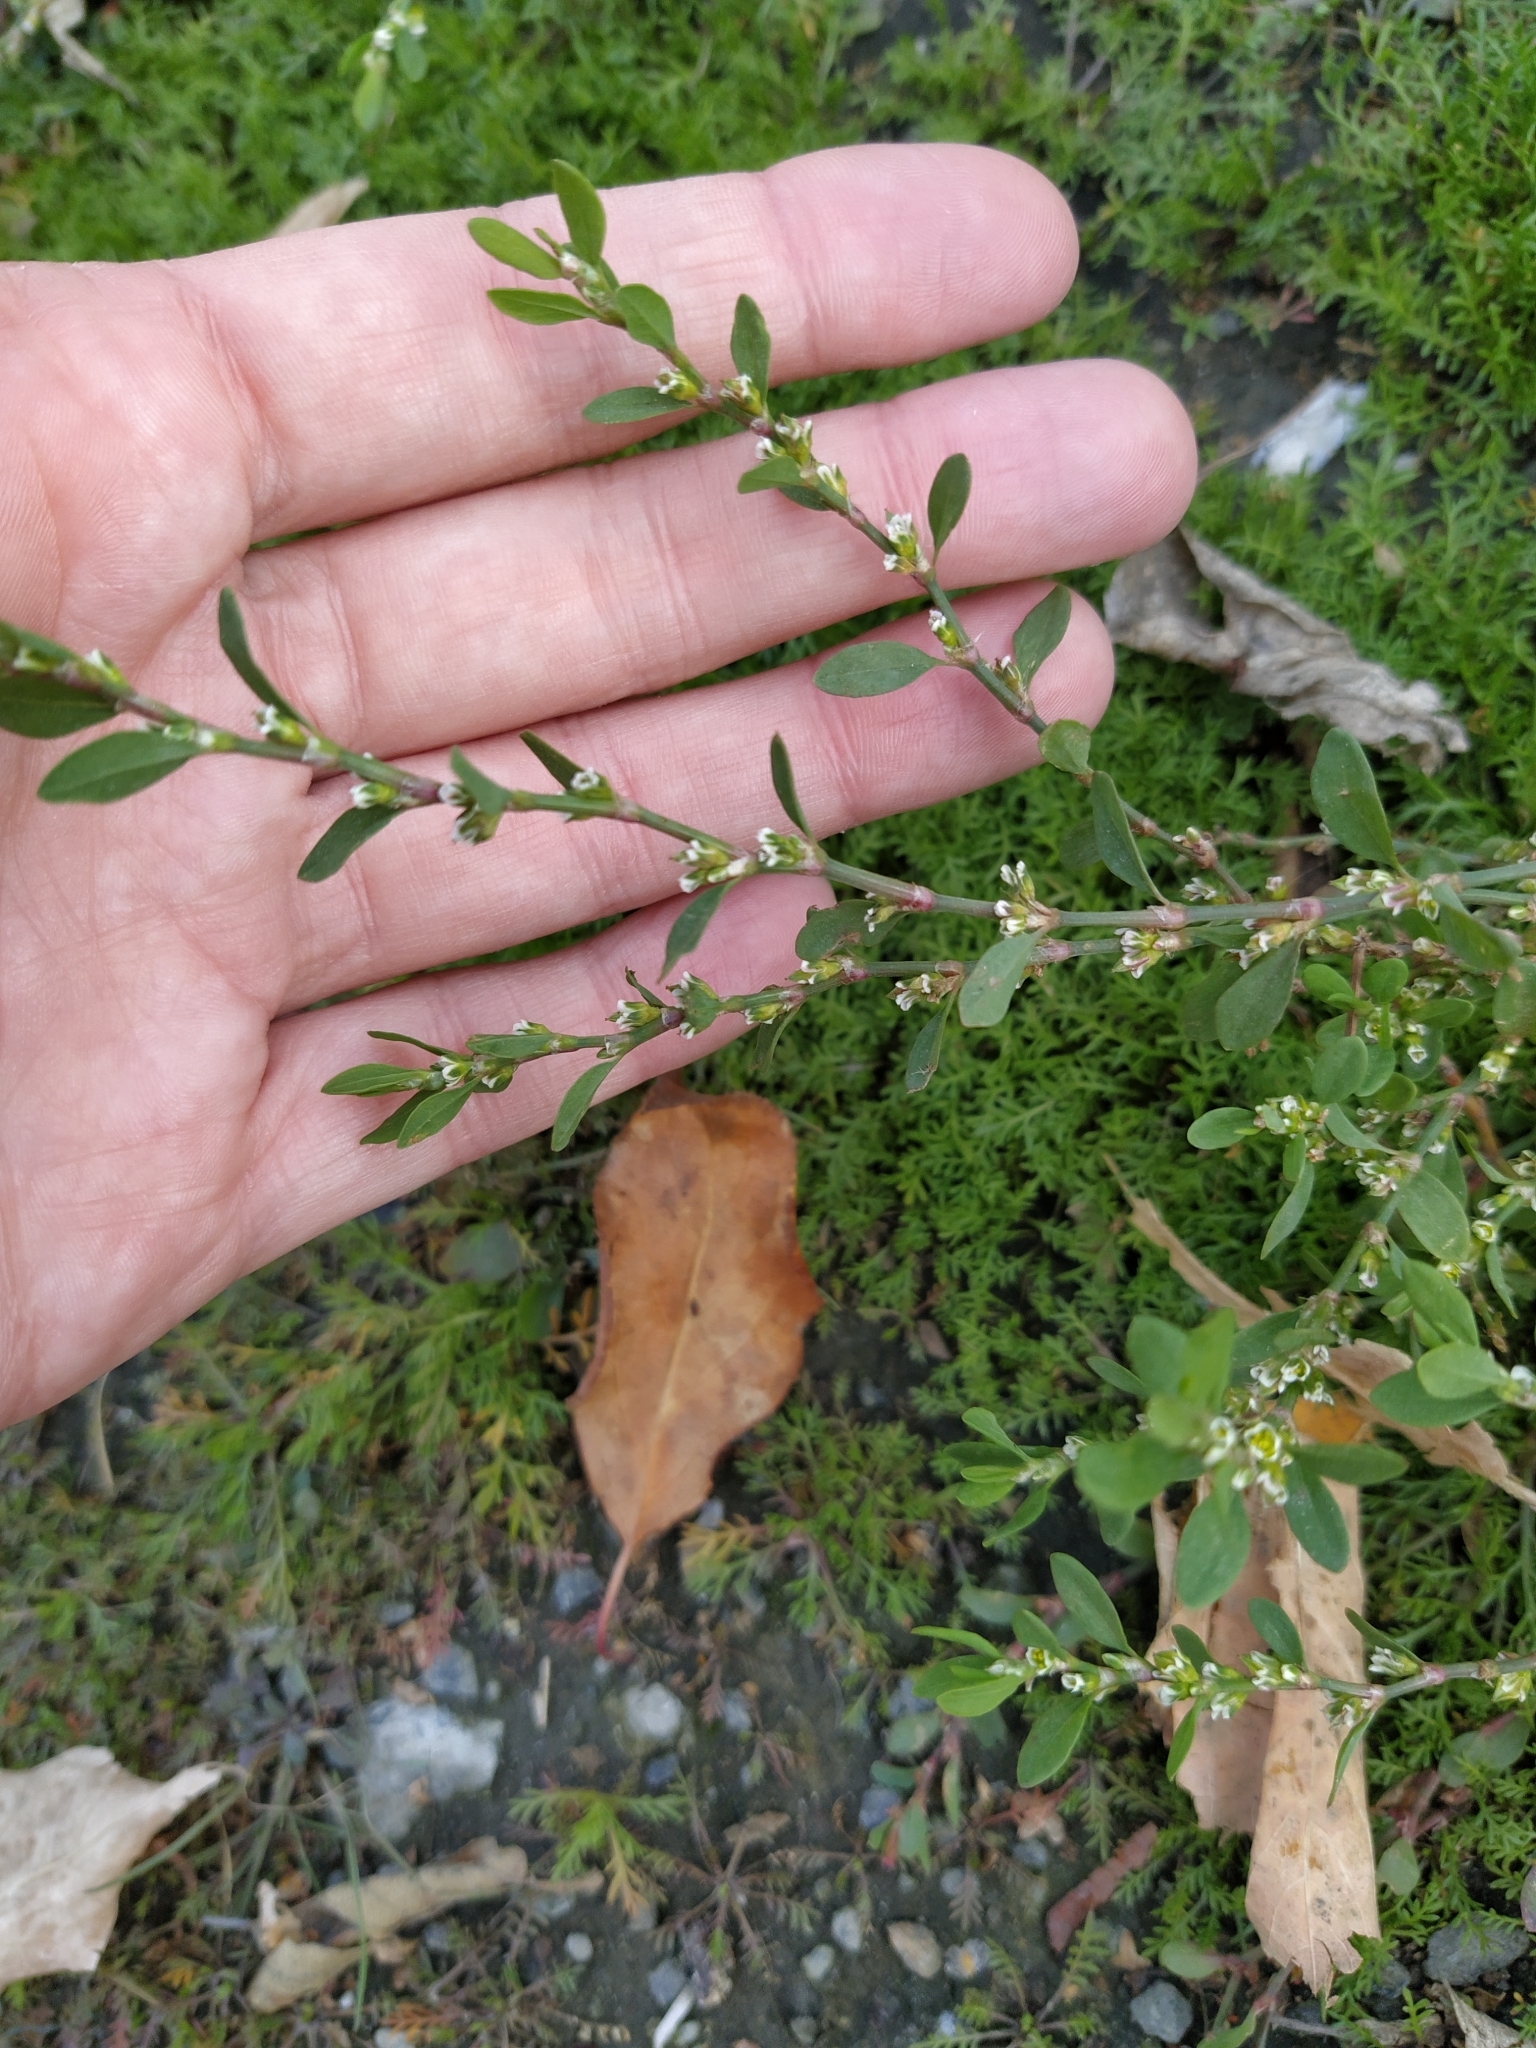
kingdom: Plantae
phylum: Tracheophyta
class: Magnoliopsida
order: Caryophyllales
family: Polygonaceae
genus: Polygonum
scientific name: Polygonum
